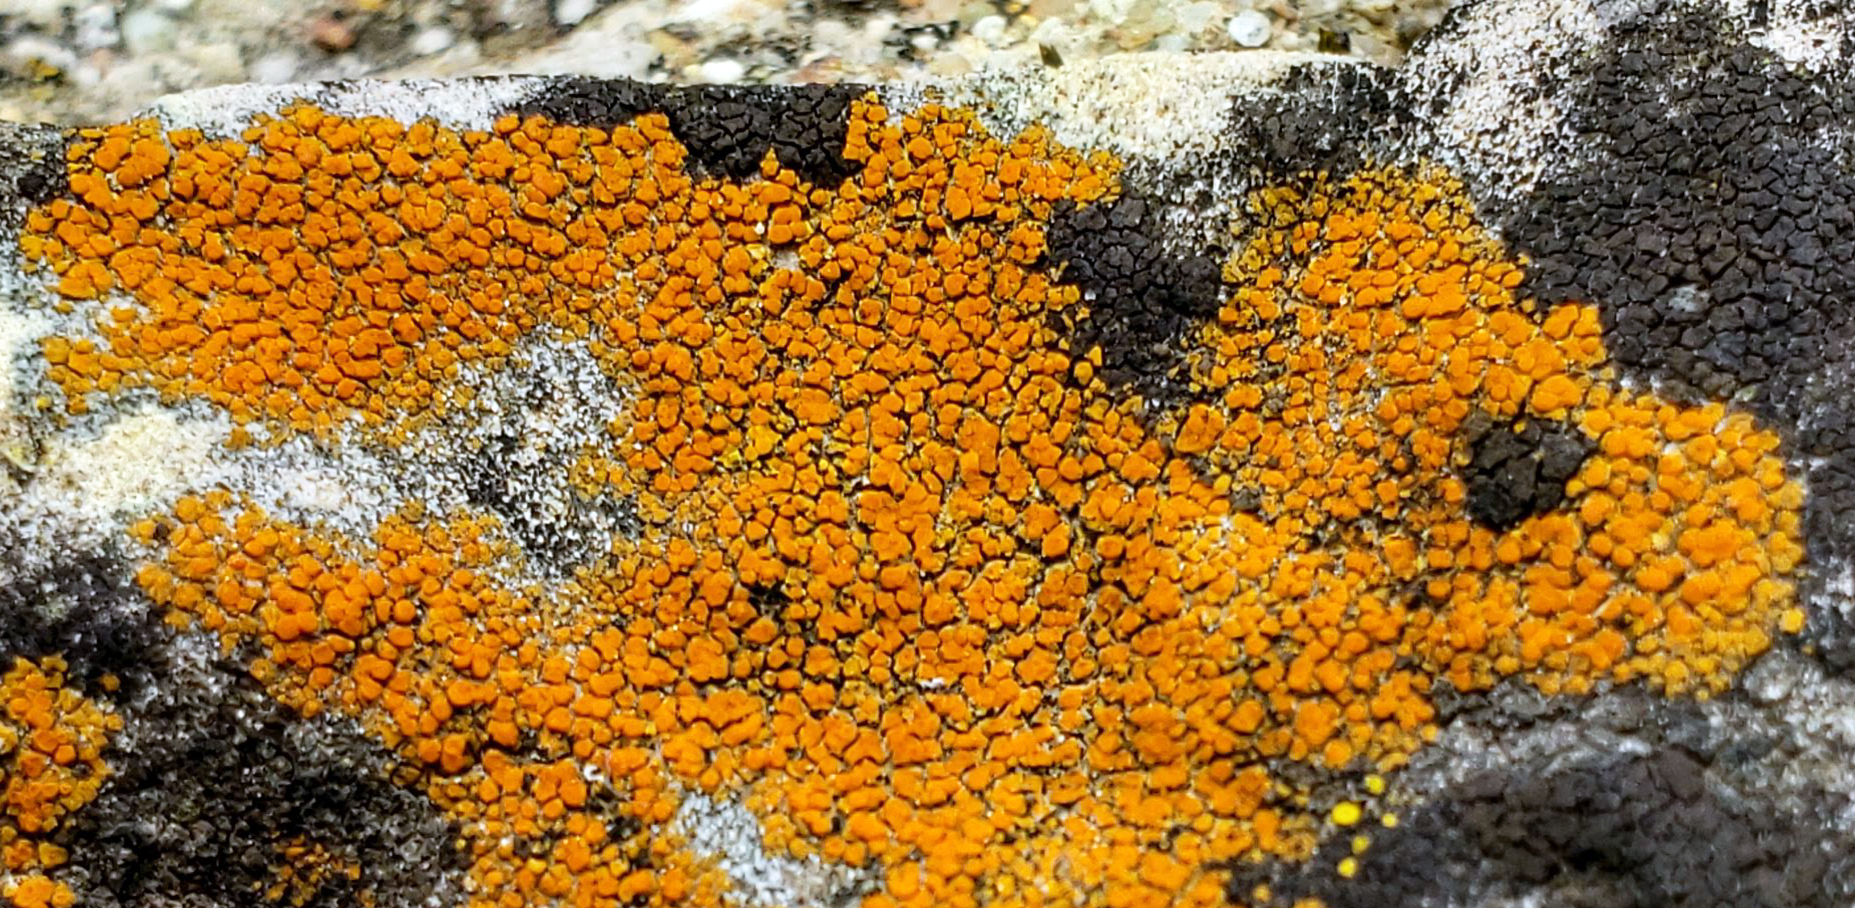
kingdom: Fungi
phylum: Ascomycota
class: Lecanoromycetes
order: Teloschistales
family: Teloschistaceae
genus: Squamulea
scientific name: Squamulea subsoluta
